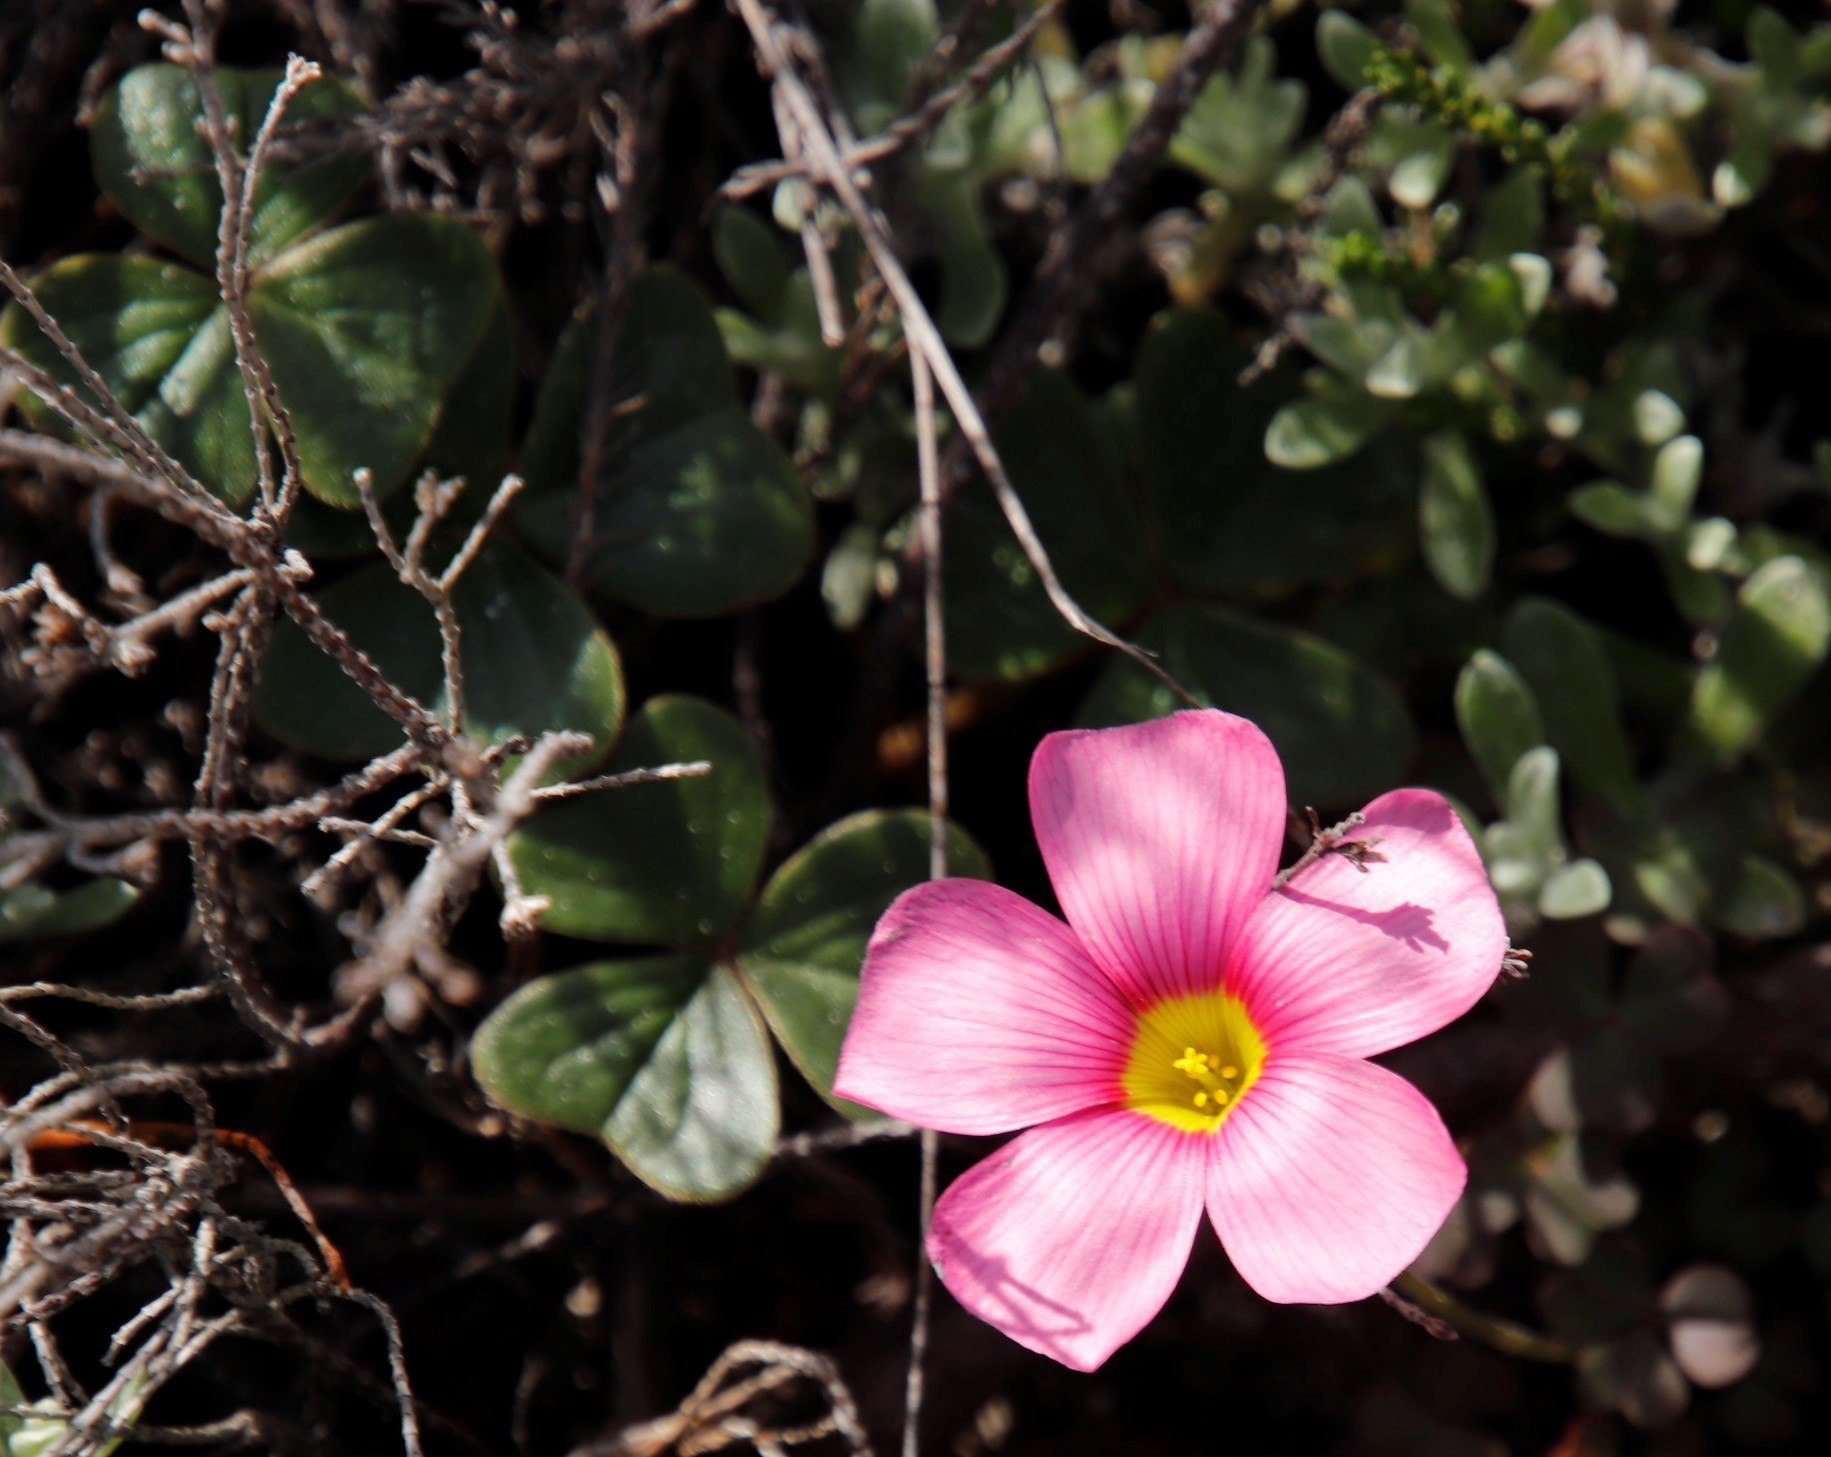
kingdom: Plantae
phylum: Tracheophyta
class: Magnoliopsida
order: Oxalidales
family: Oxalidaceae
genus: Oxalis
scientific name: Oxalis obtusa
